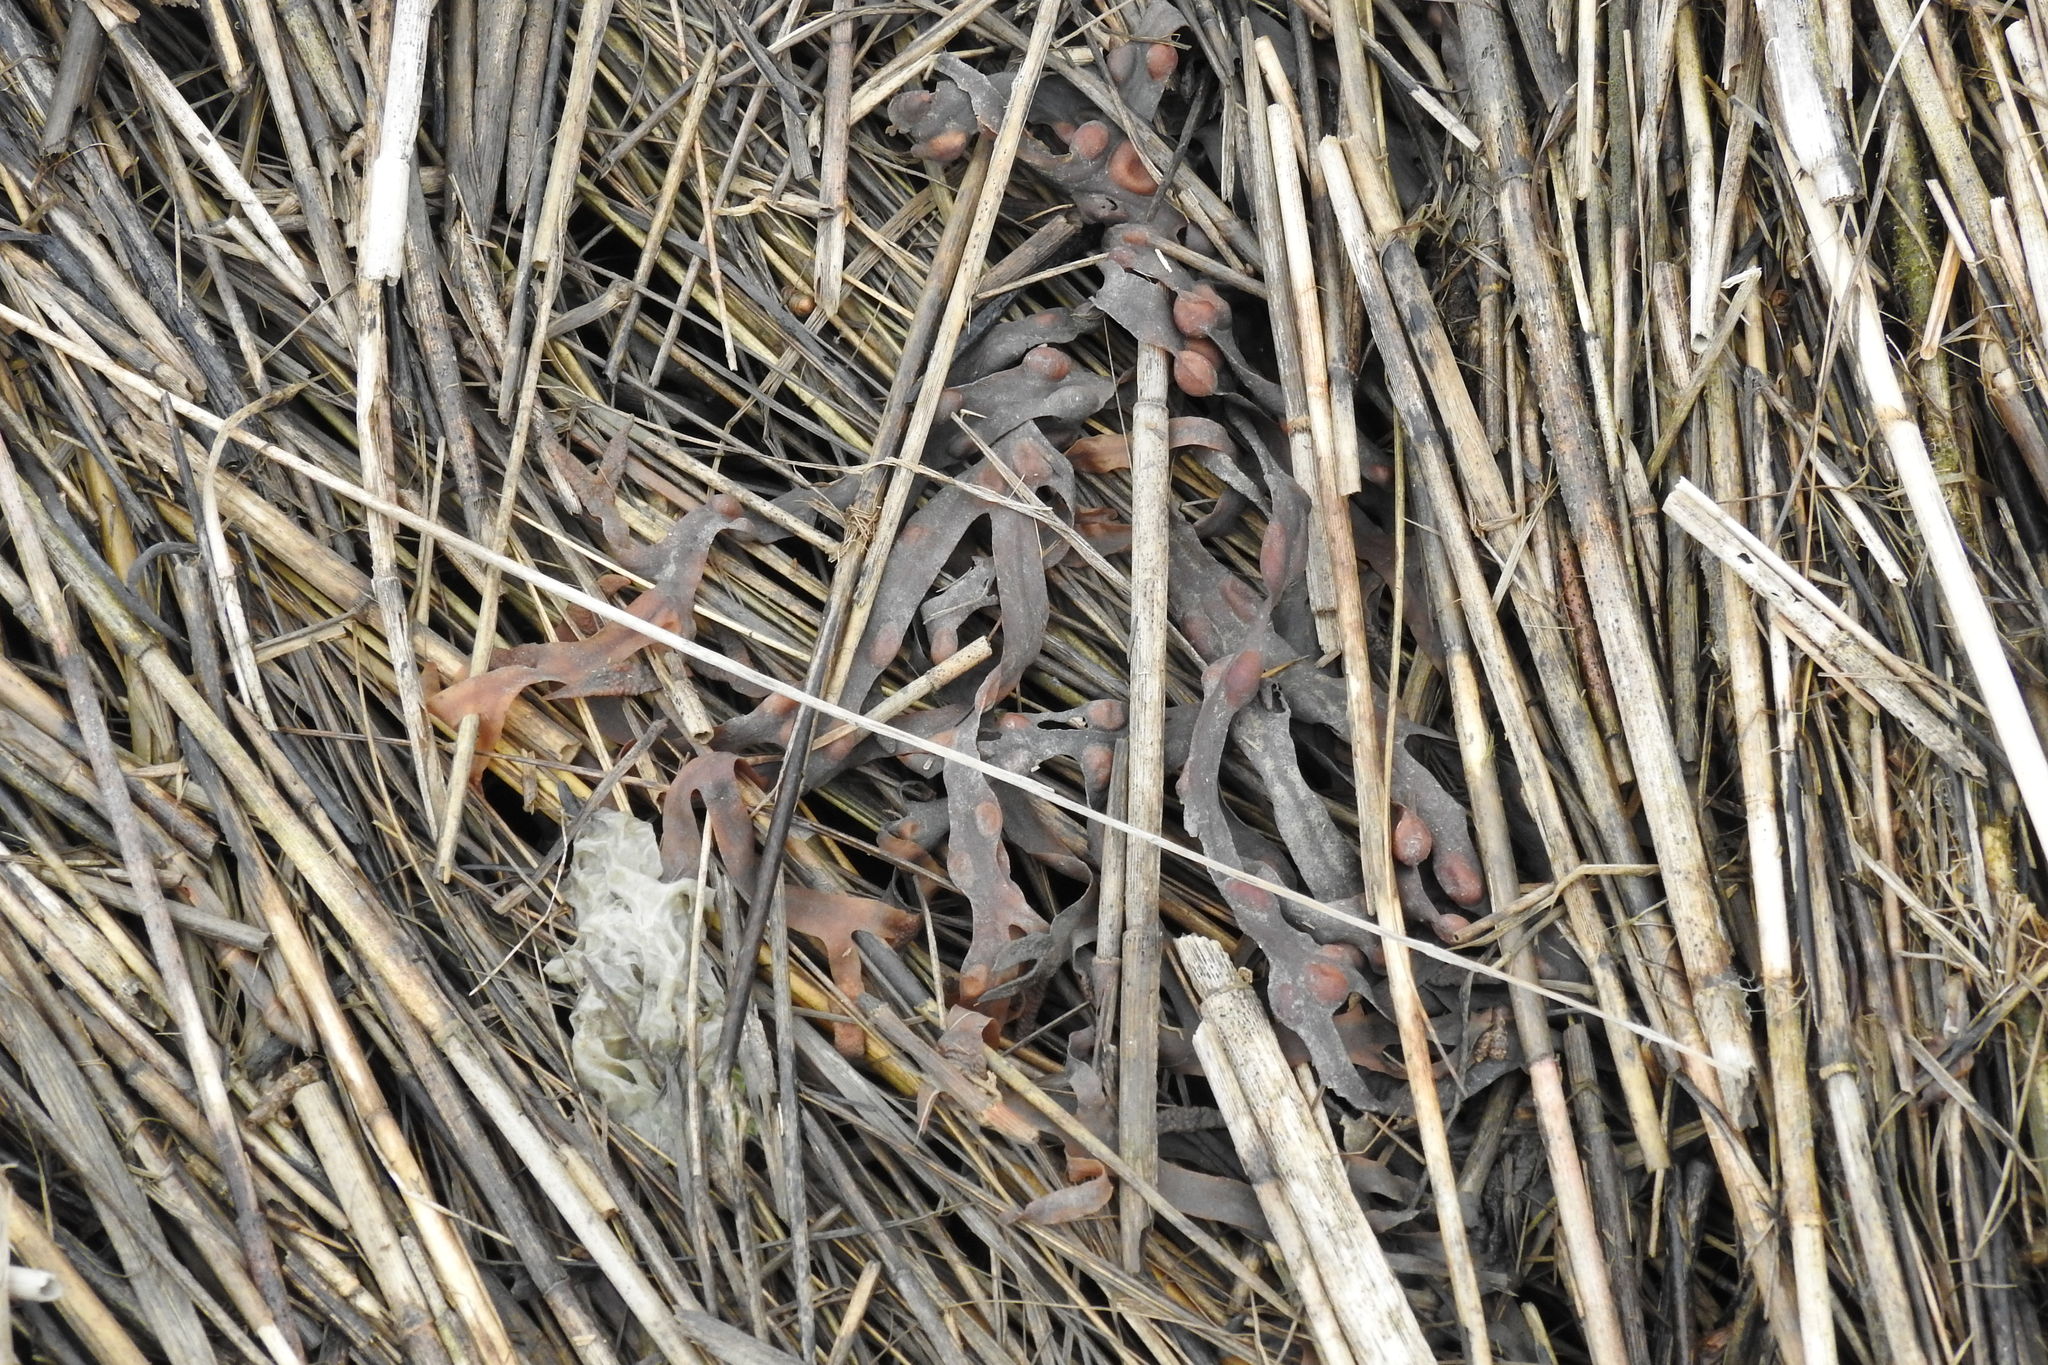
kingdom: Chromista
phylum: Ochrophyta
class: Phaeophyceae
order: Fucales
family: Fucaceae
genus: Fucus
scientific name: Fucus vesiculosus
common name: Bladder wrack
